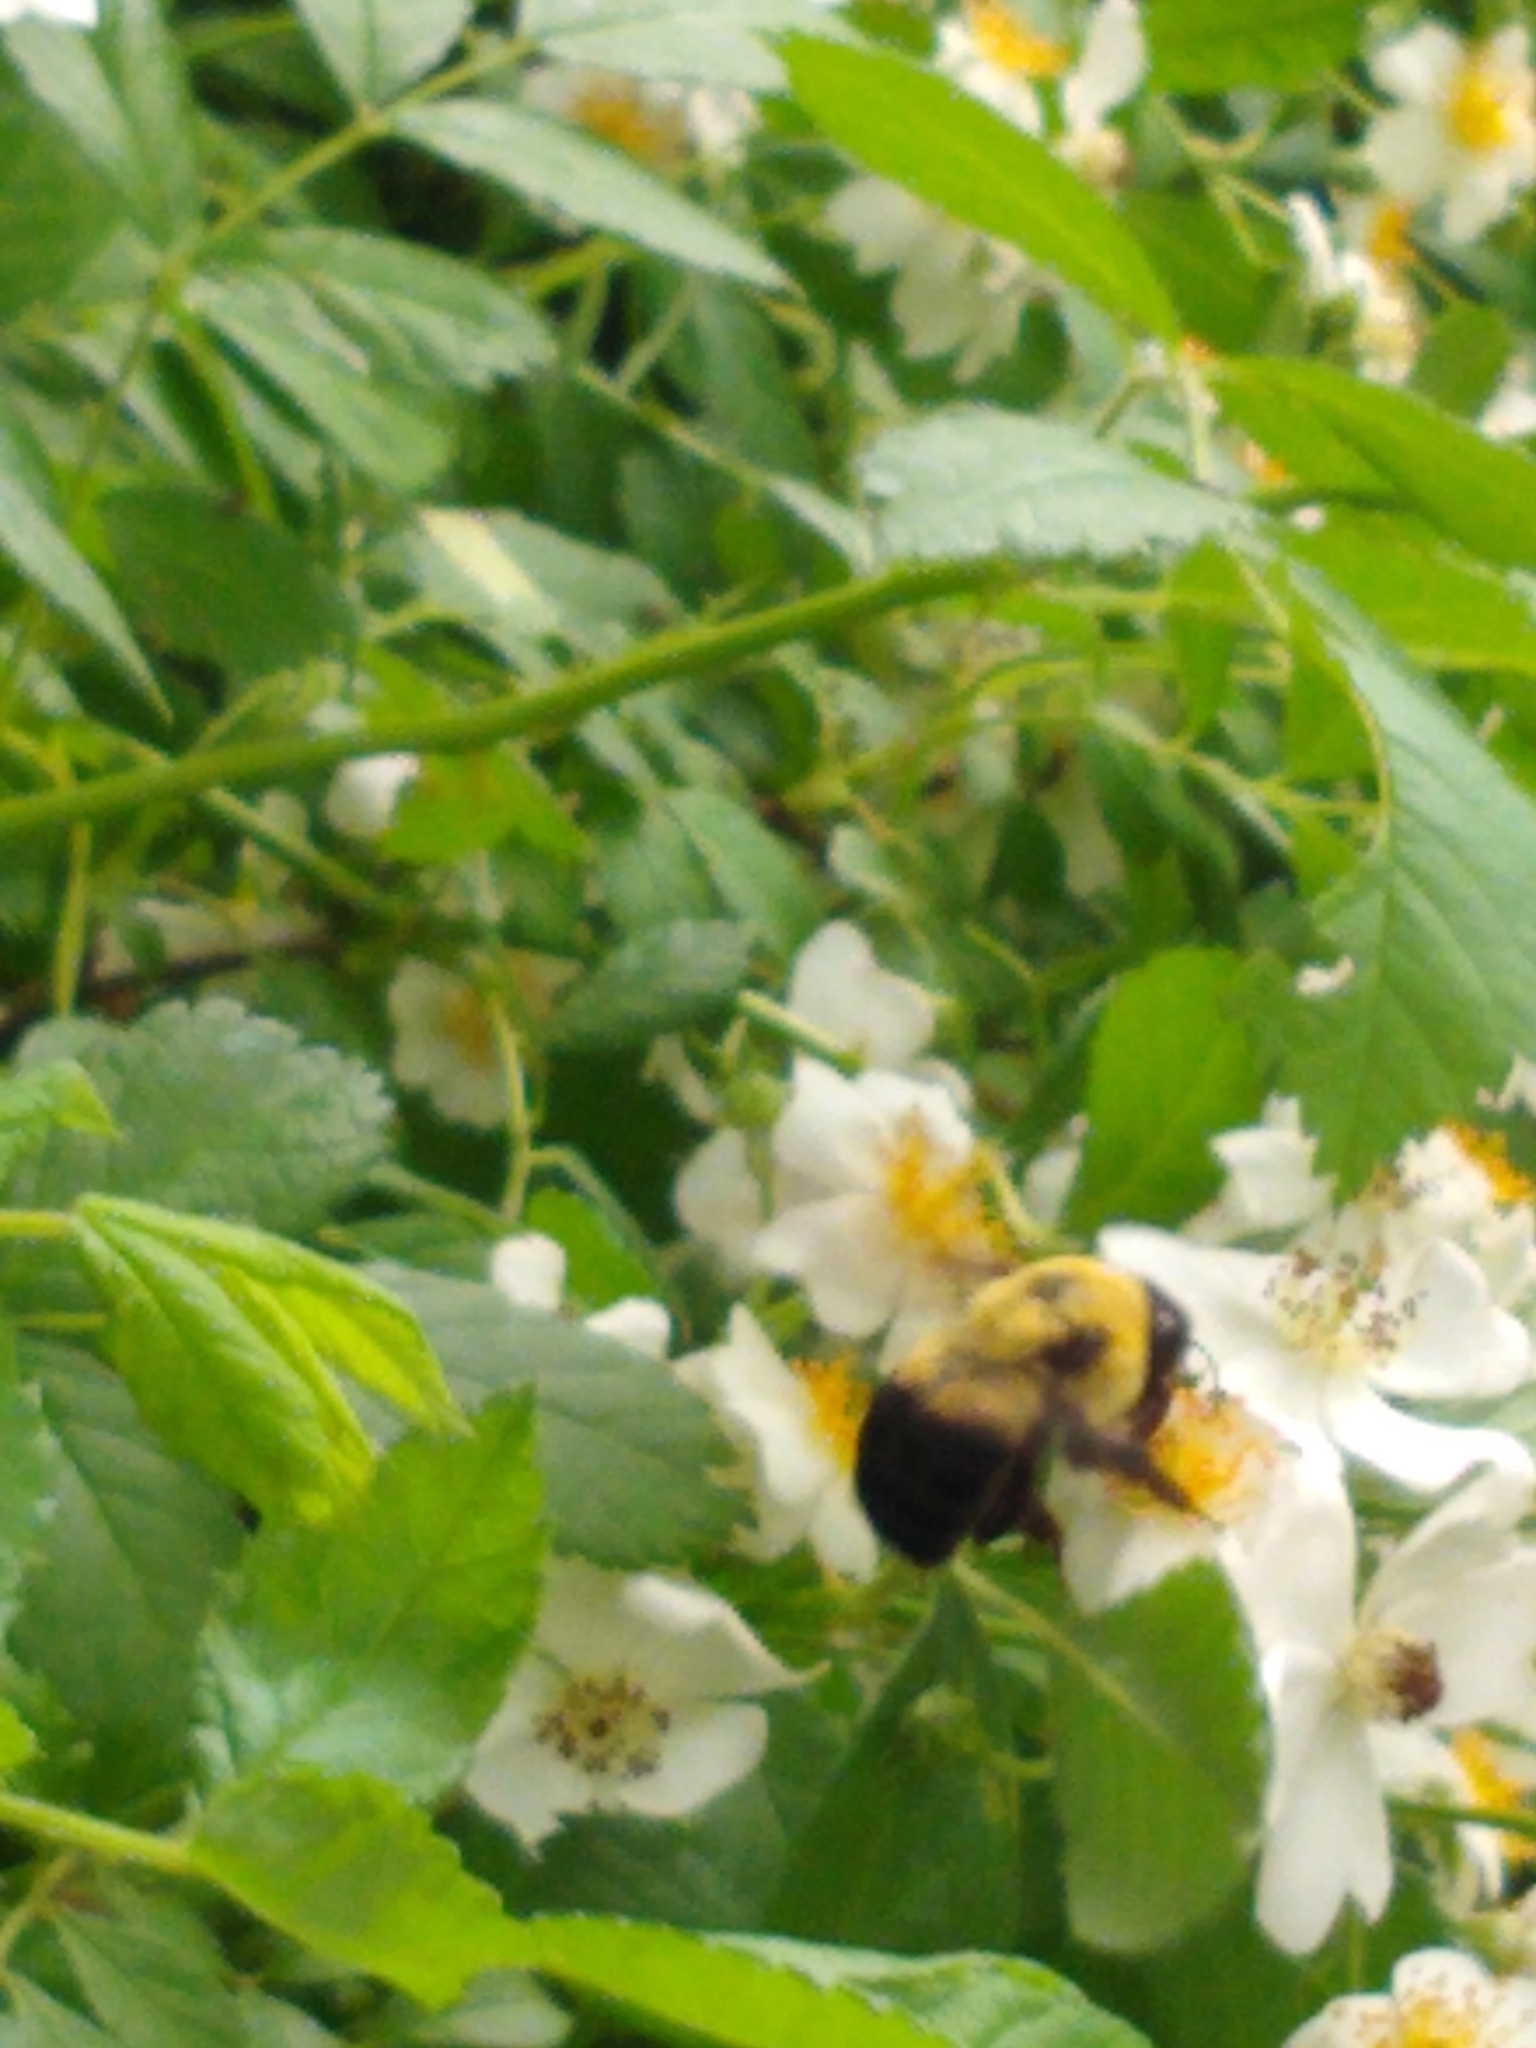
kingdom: Animalia
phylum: Arthropoda
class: Insecta
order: Hymenoptera
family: Apidae
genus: Bombus
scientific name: Bombus griseocollis
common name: Brown-belted bumble bee
